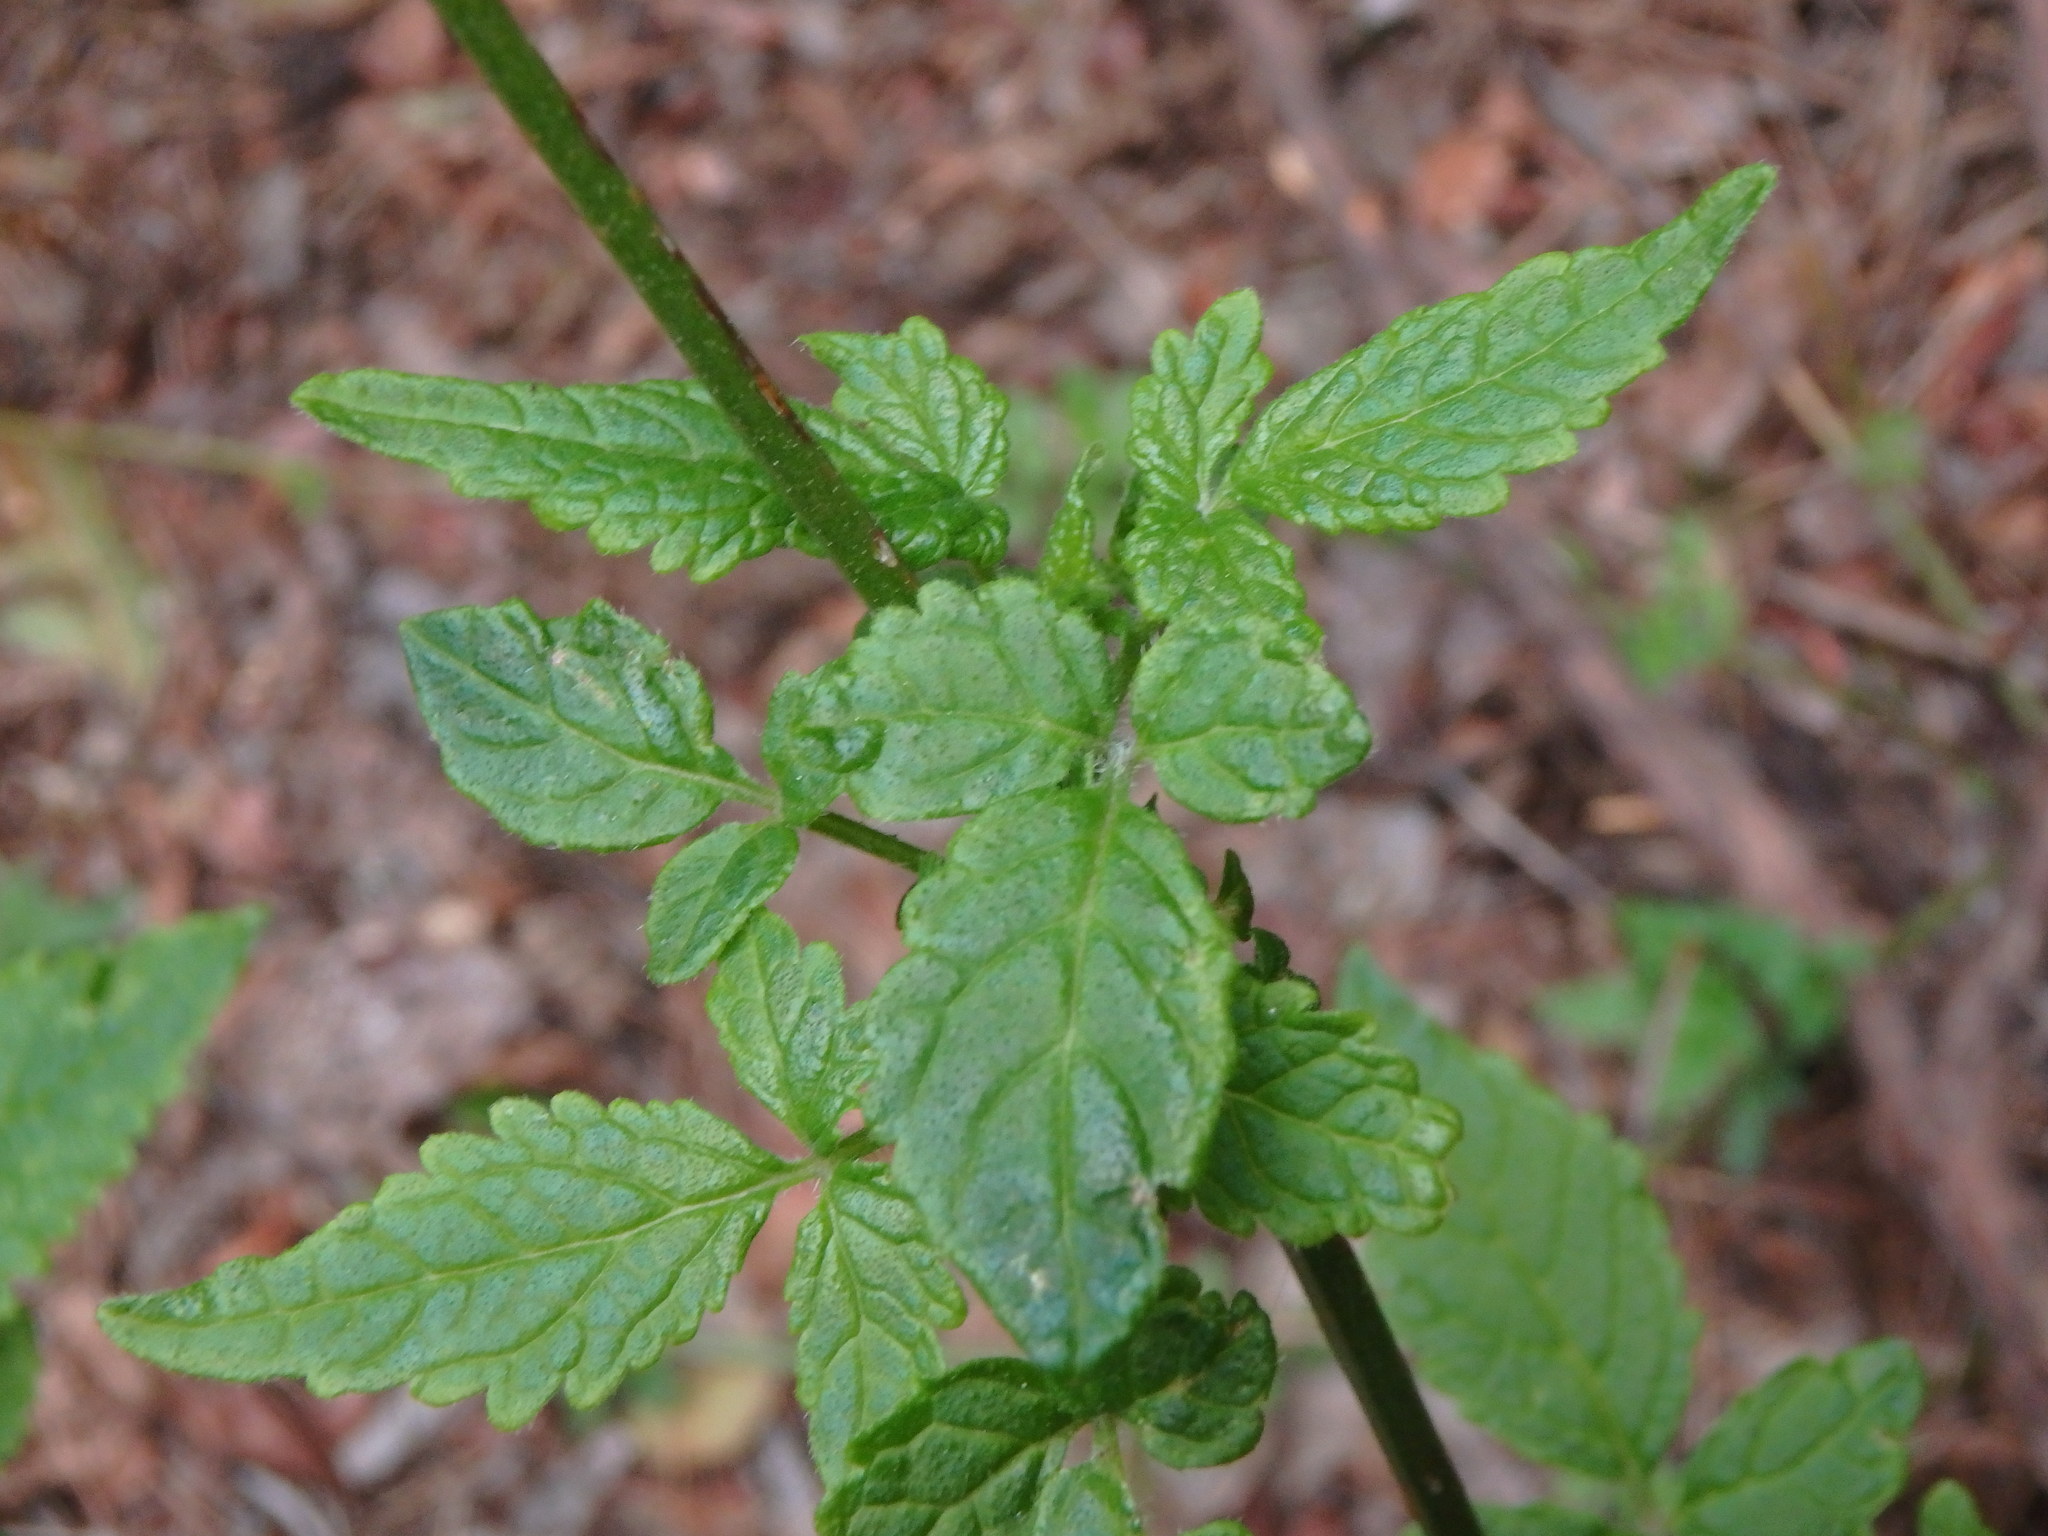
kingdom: Plantae
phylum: Tracheophyta
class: Magnoliopsida
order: Lamiales
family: Lamiaceae
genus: Cedronella
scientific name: Cedronella canariensis
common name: Canary islands balm
